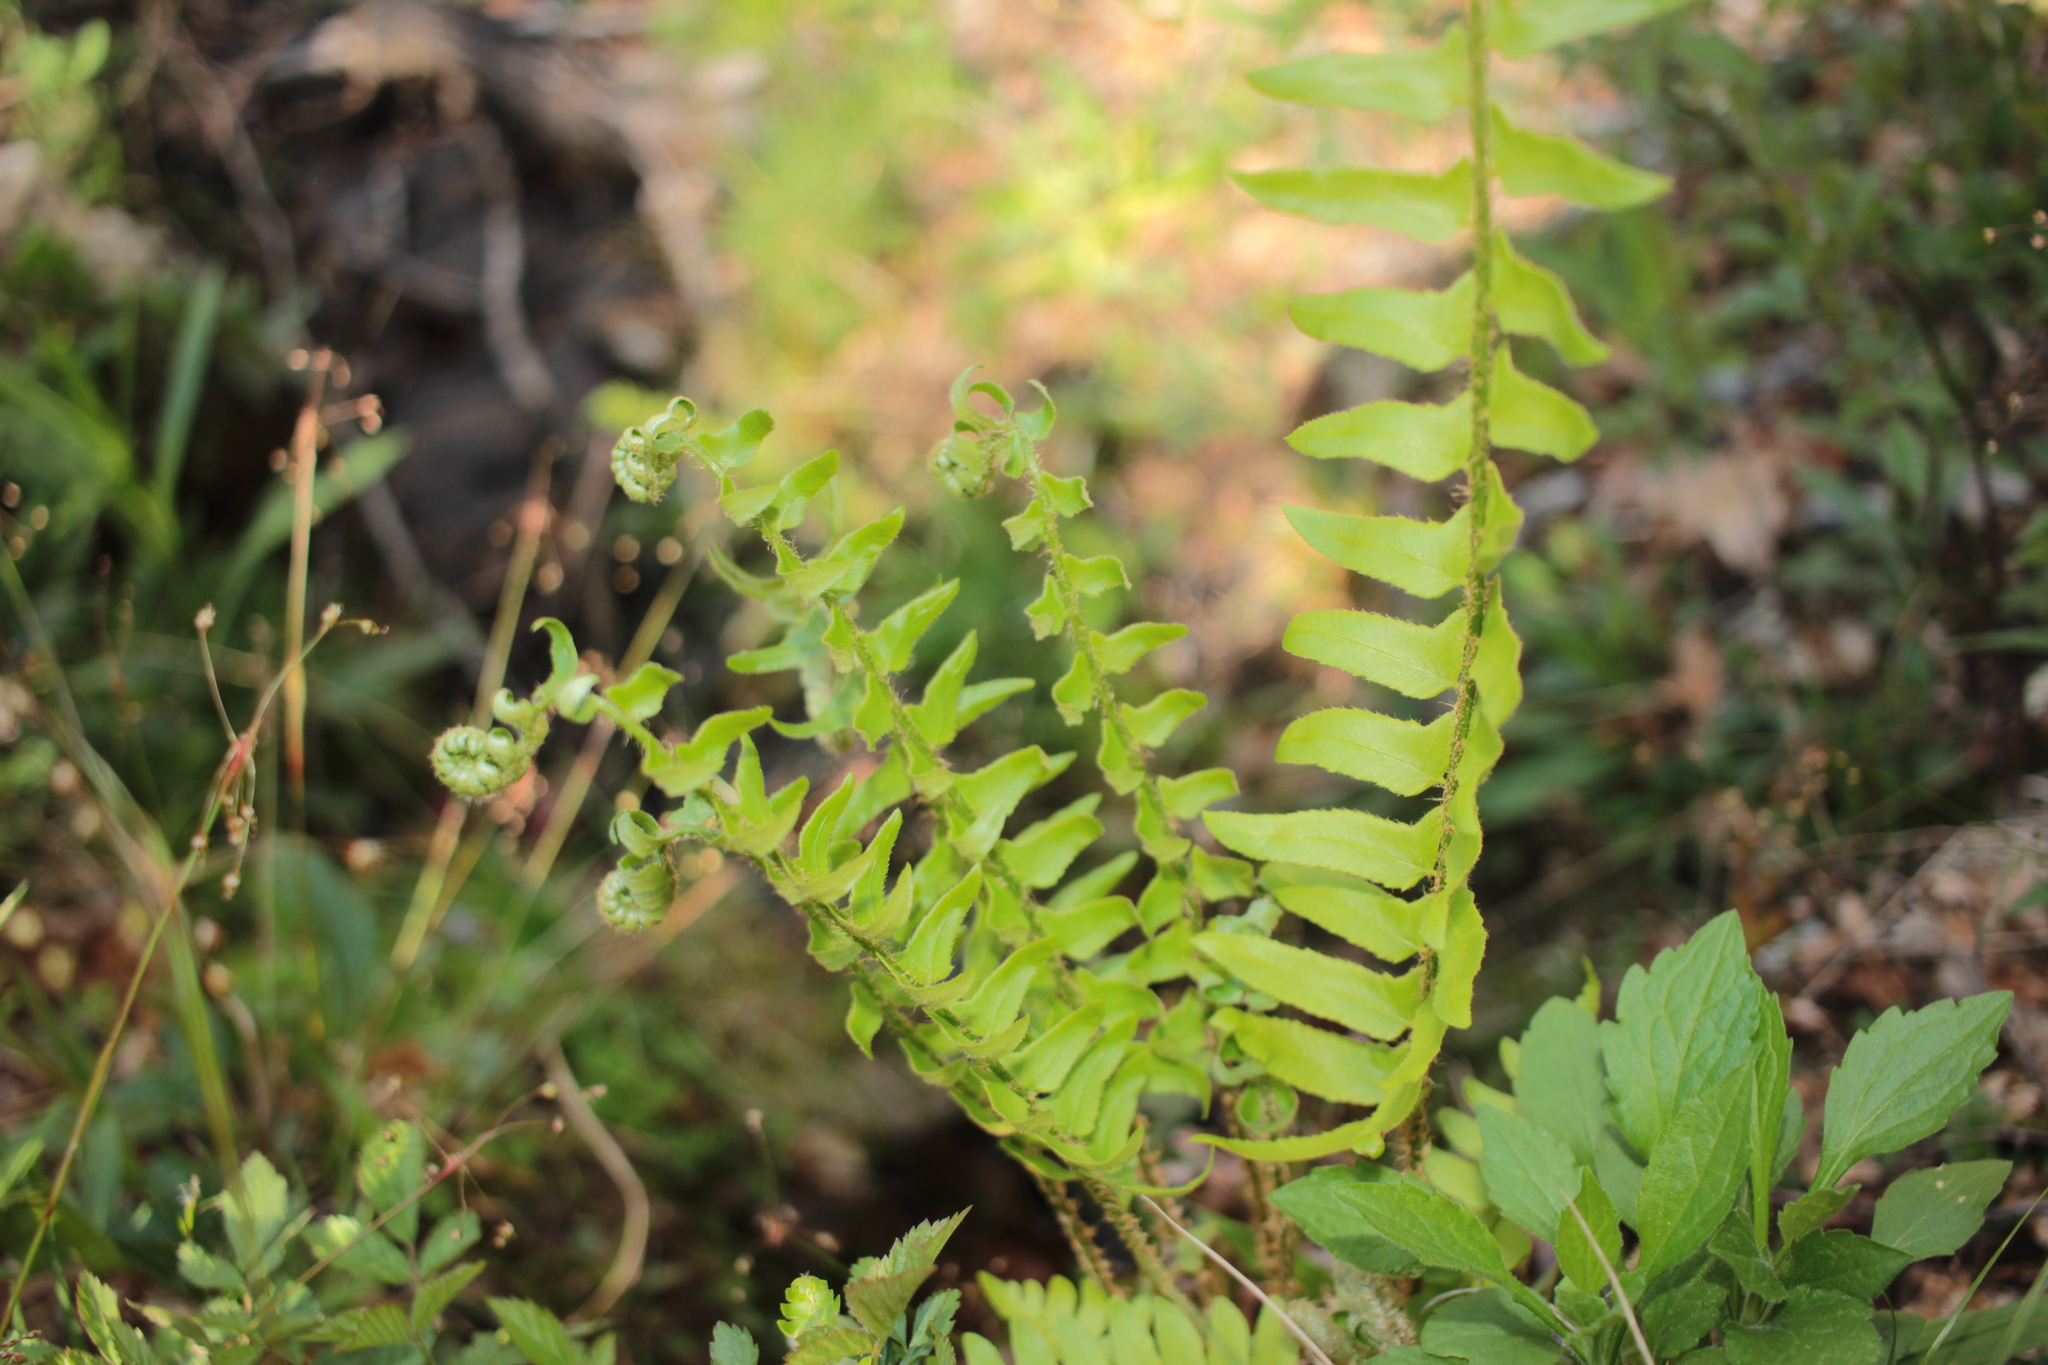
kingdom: Plantae
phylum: Tracheophyta
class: Polypodiopsida
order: Polypodiales
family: Dryopteridaceae
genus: Polystichum
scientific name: Polystichum acrostichoides
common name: Christmas fern
